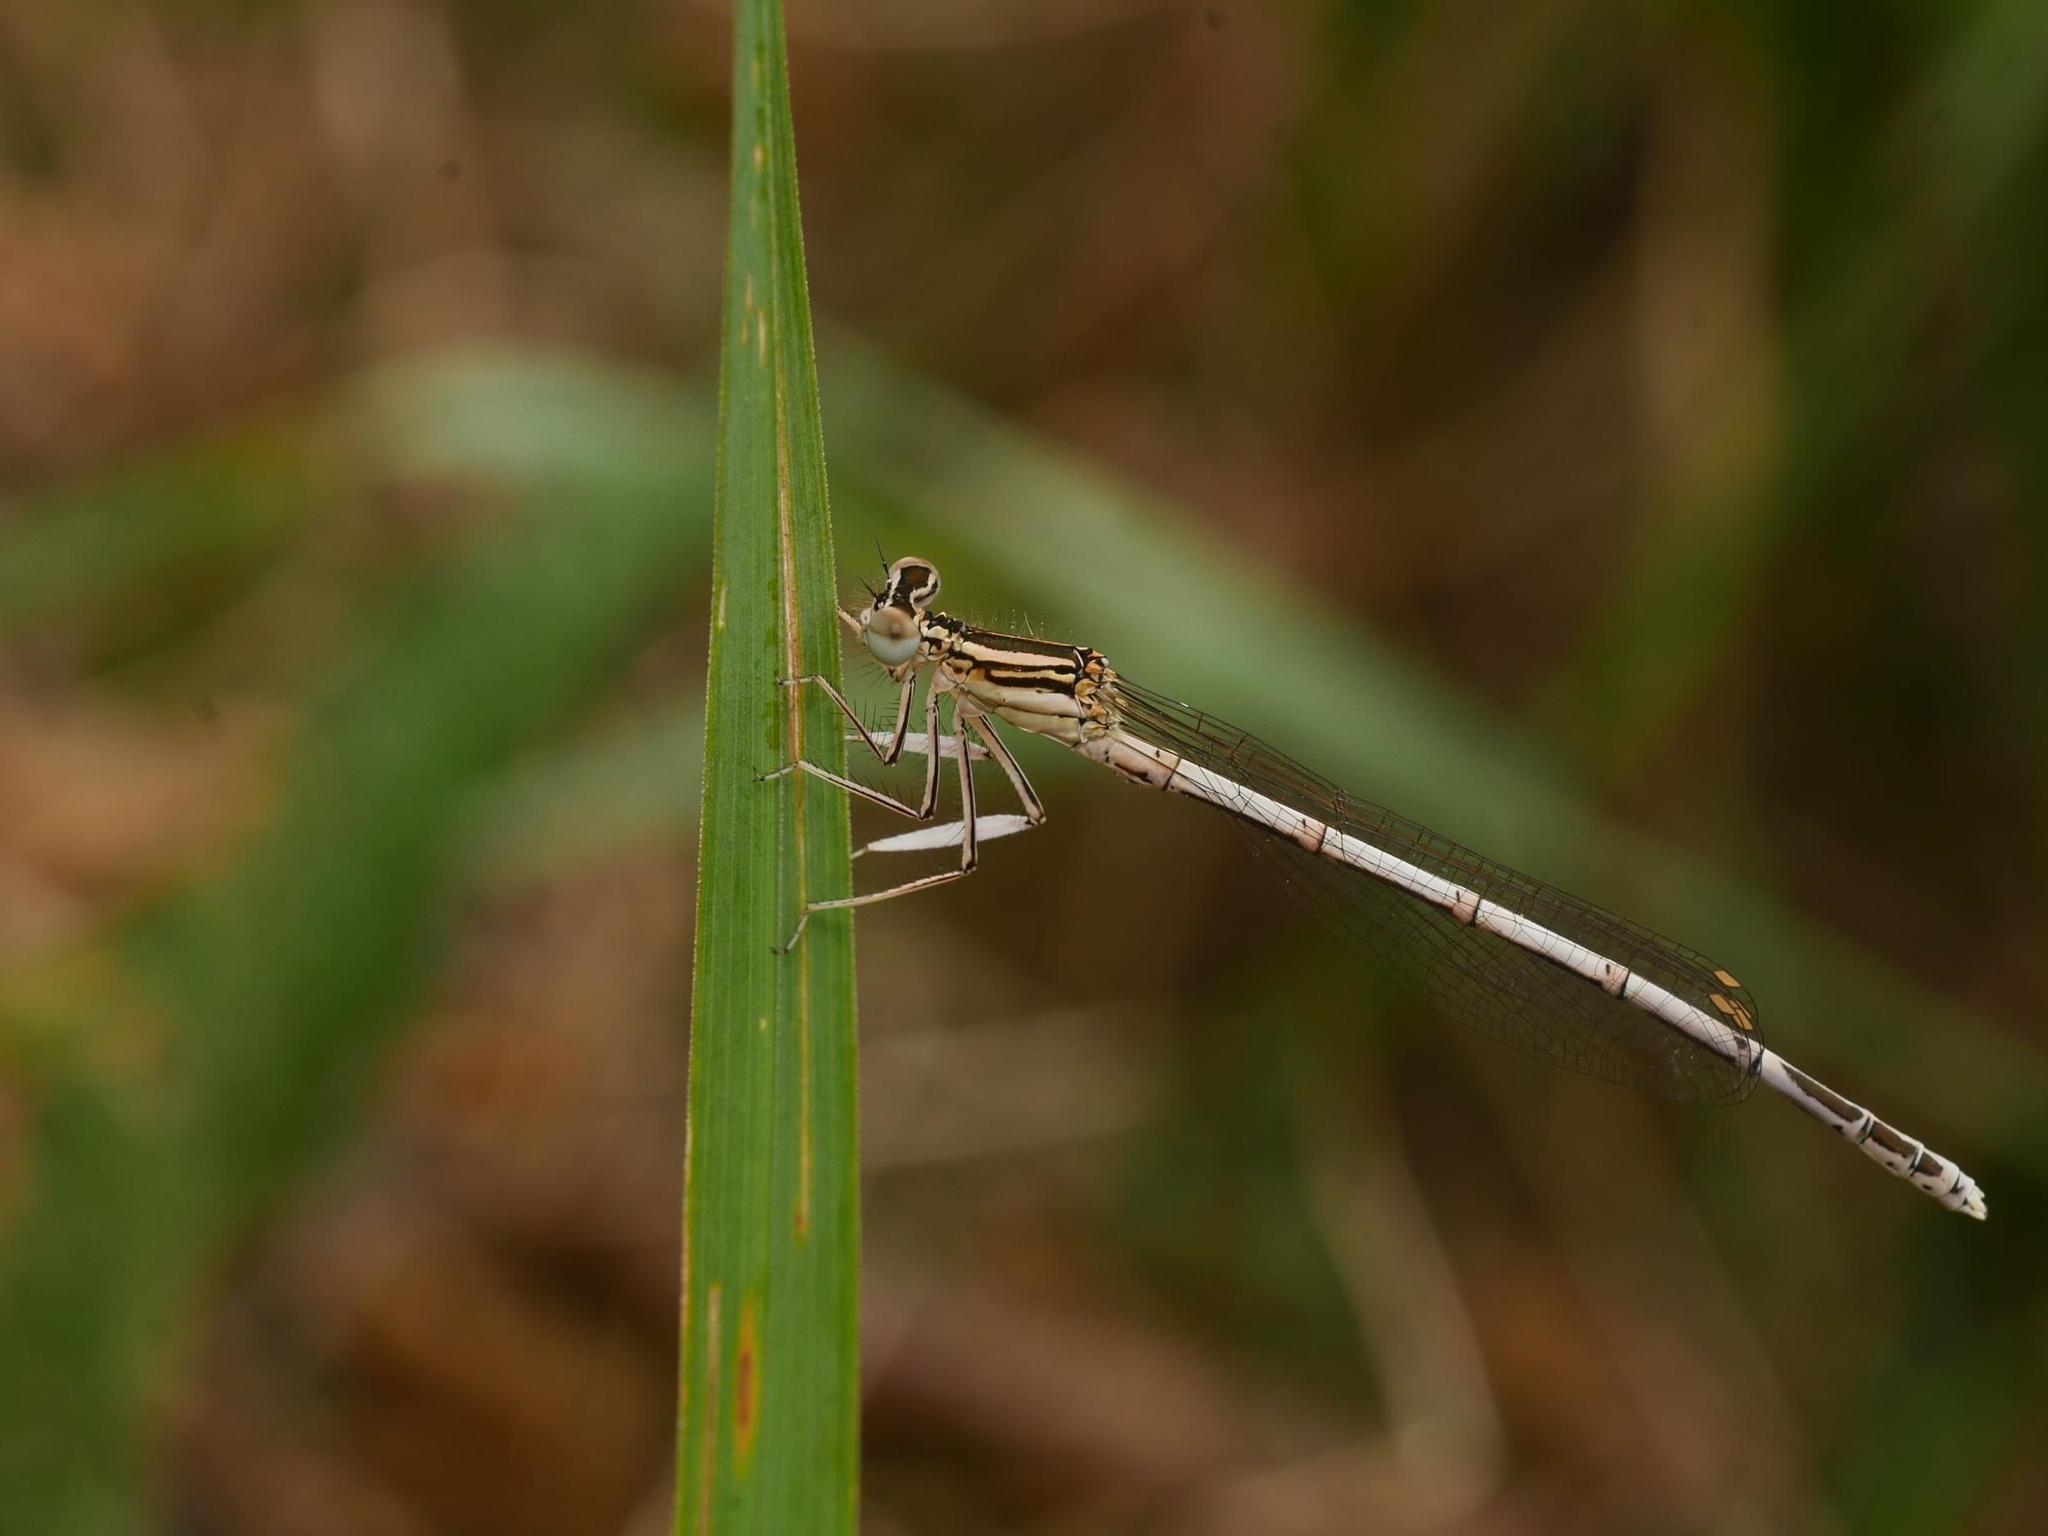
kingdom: Animalia
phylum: Arthropoda
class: Insecta
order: Odonata
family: Platycnemididae
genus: Platycnemis
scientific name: Platycnemis pennipes
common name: White-legged damselfly
